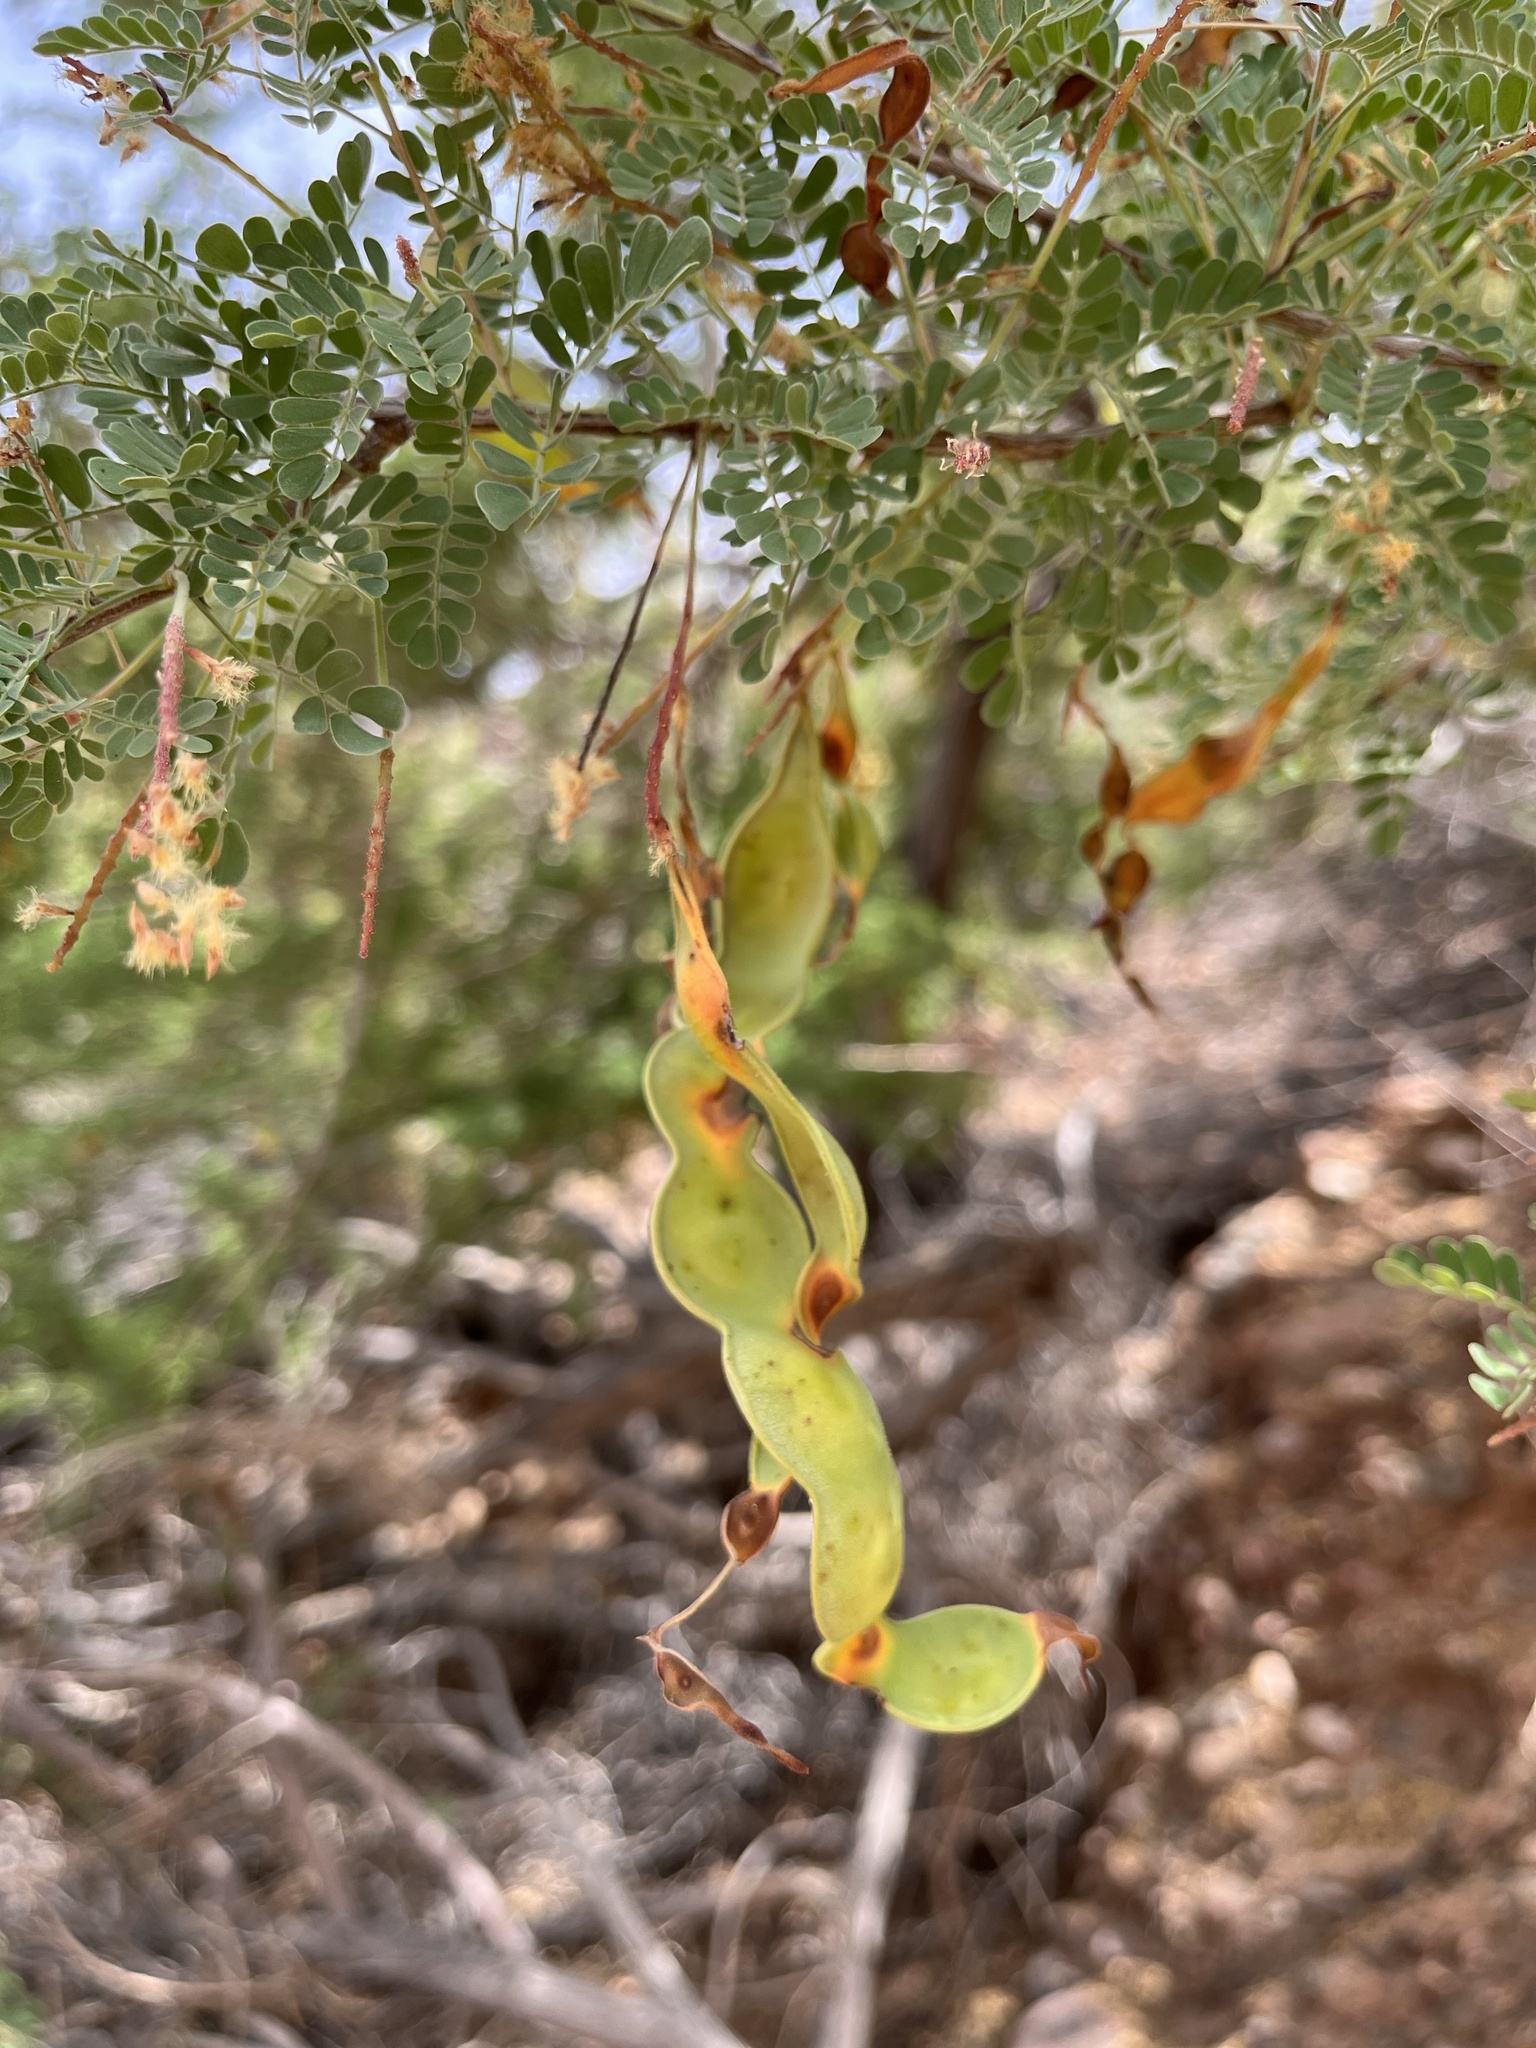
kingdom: Plantae
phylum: Tracheophyta
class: Magnoliopsida
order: Fabales
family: Fabaceae
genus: Senegalia
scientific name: Senegalia greggii
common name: Texas-mimosa
